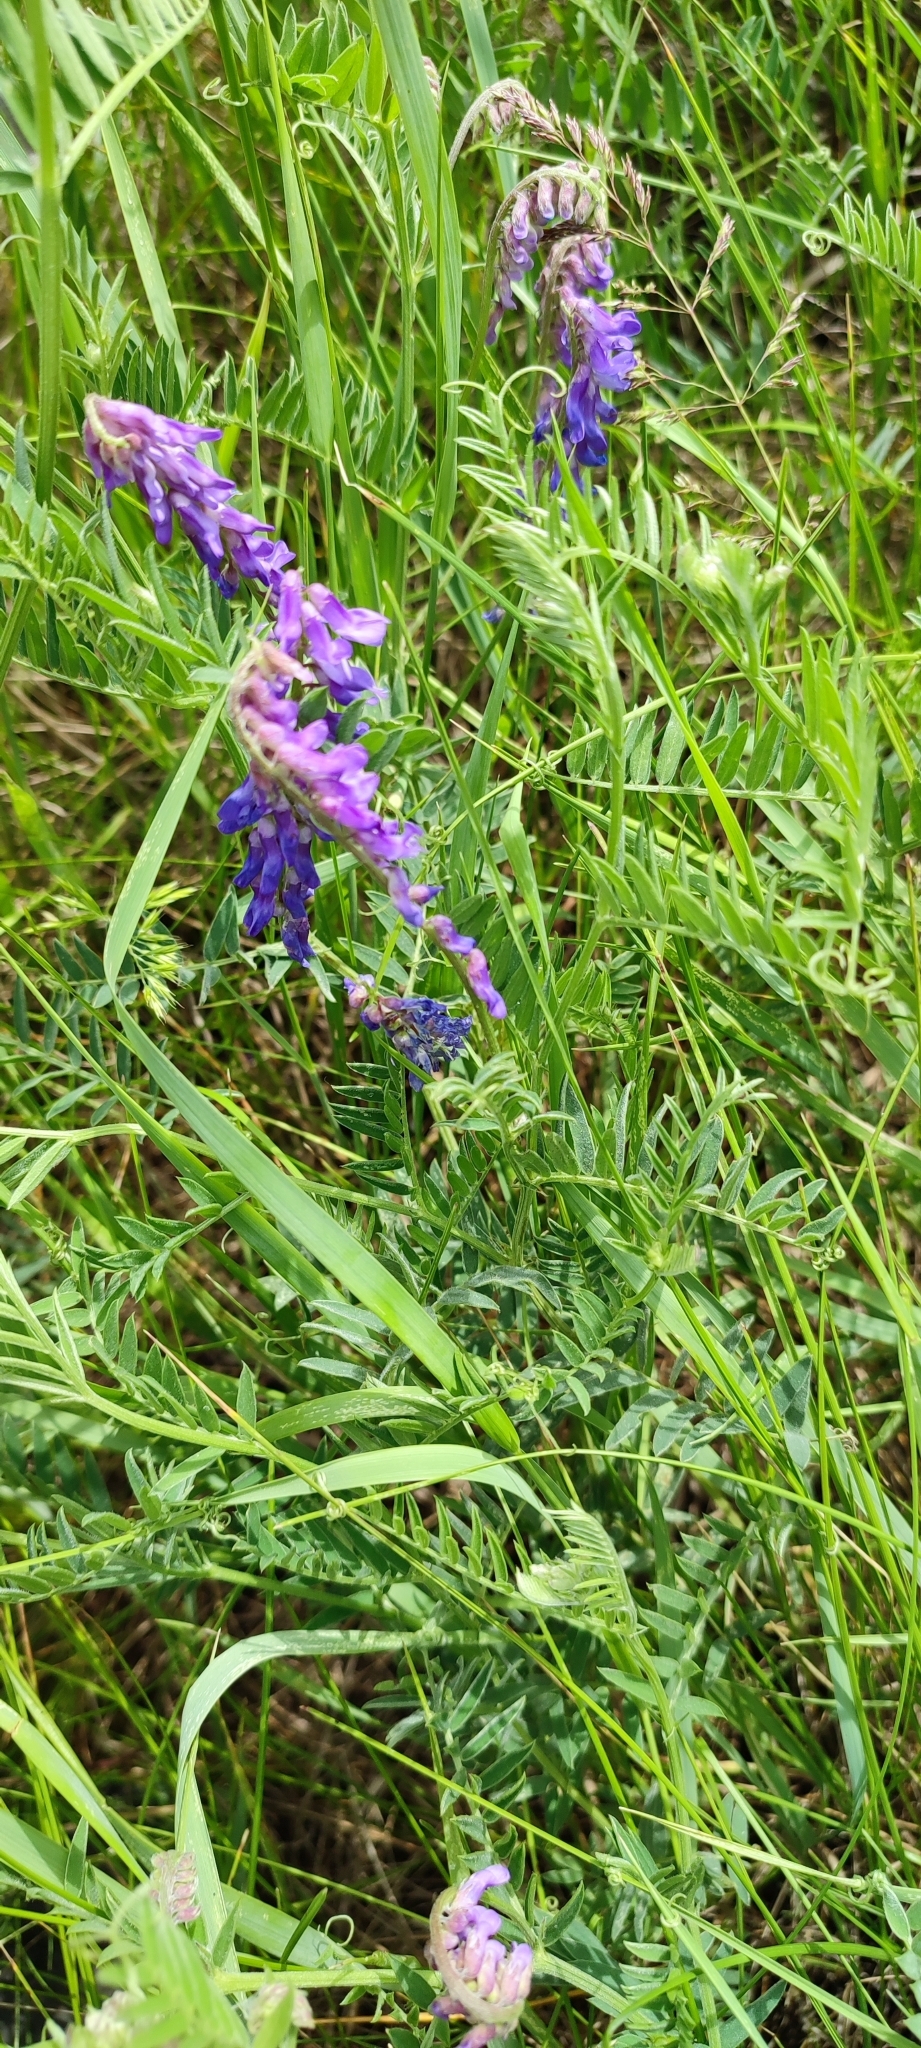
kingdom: Plantae
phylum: Tracheophyta
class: Magnoliopsida
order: Fabales
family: Fabaceae
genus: Vicia
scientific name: Vicia cracca
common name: Bird vetch
